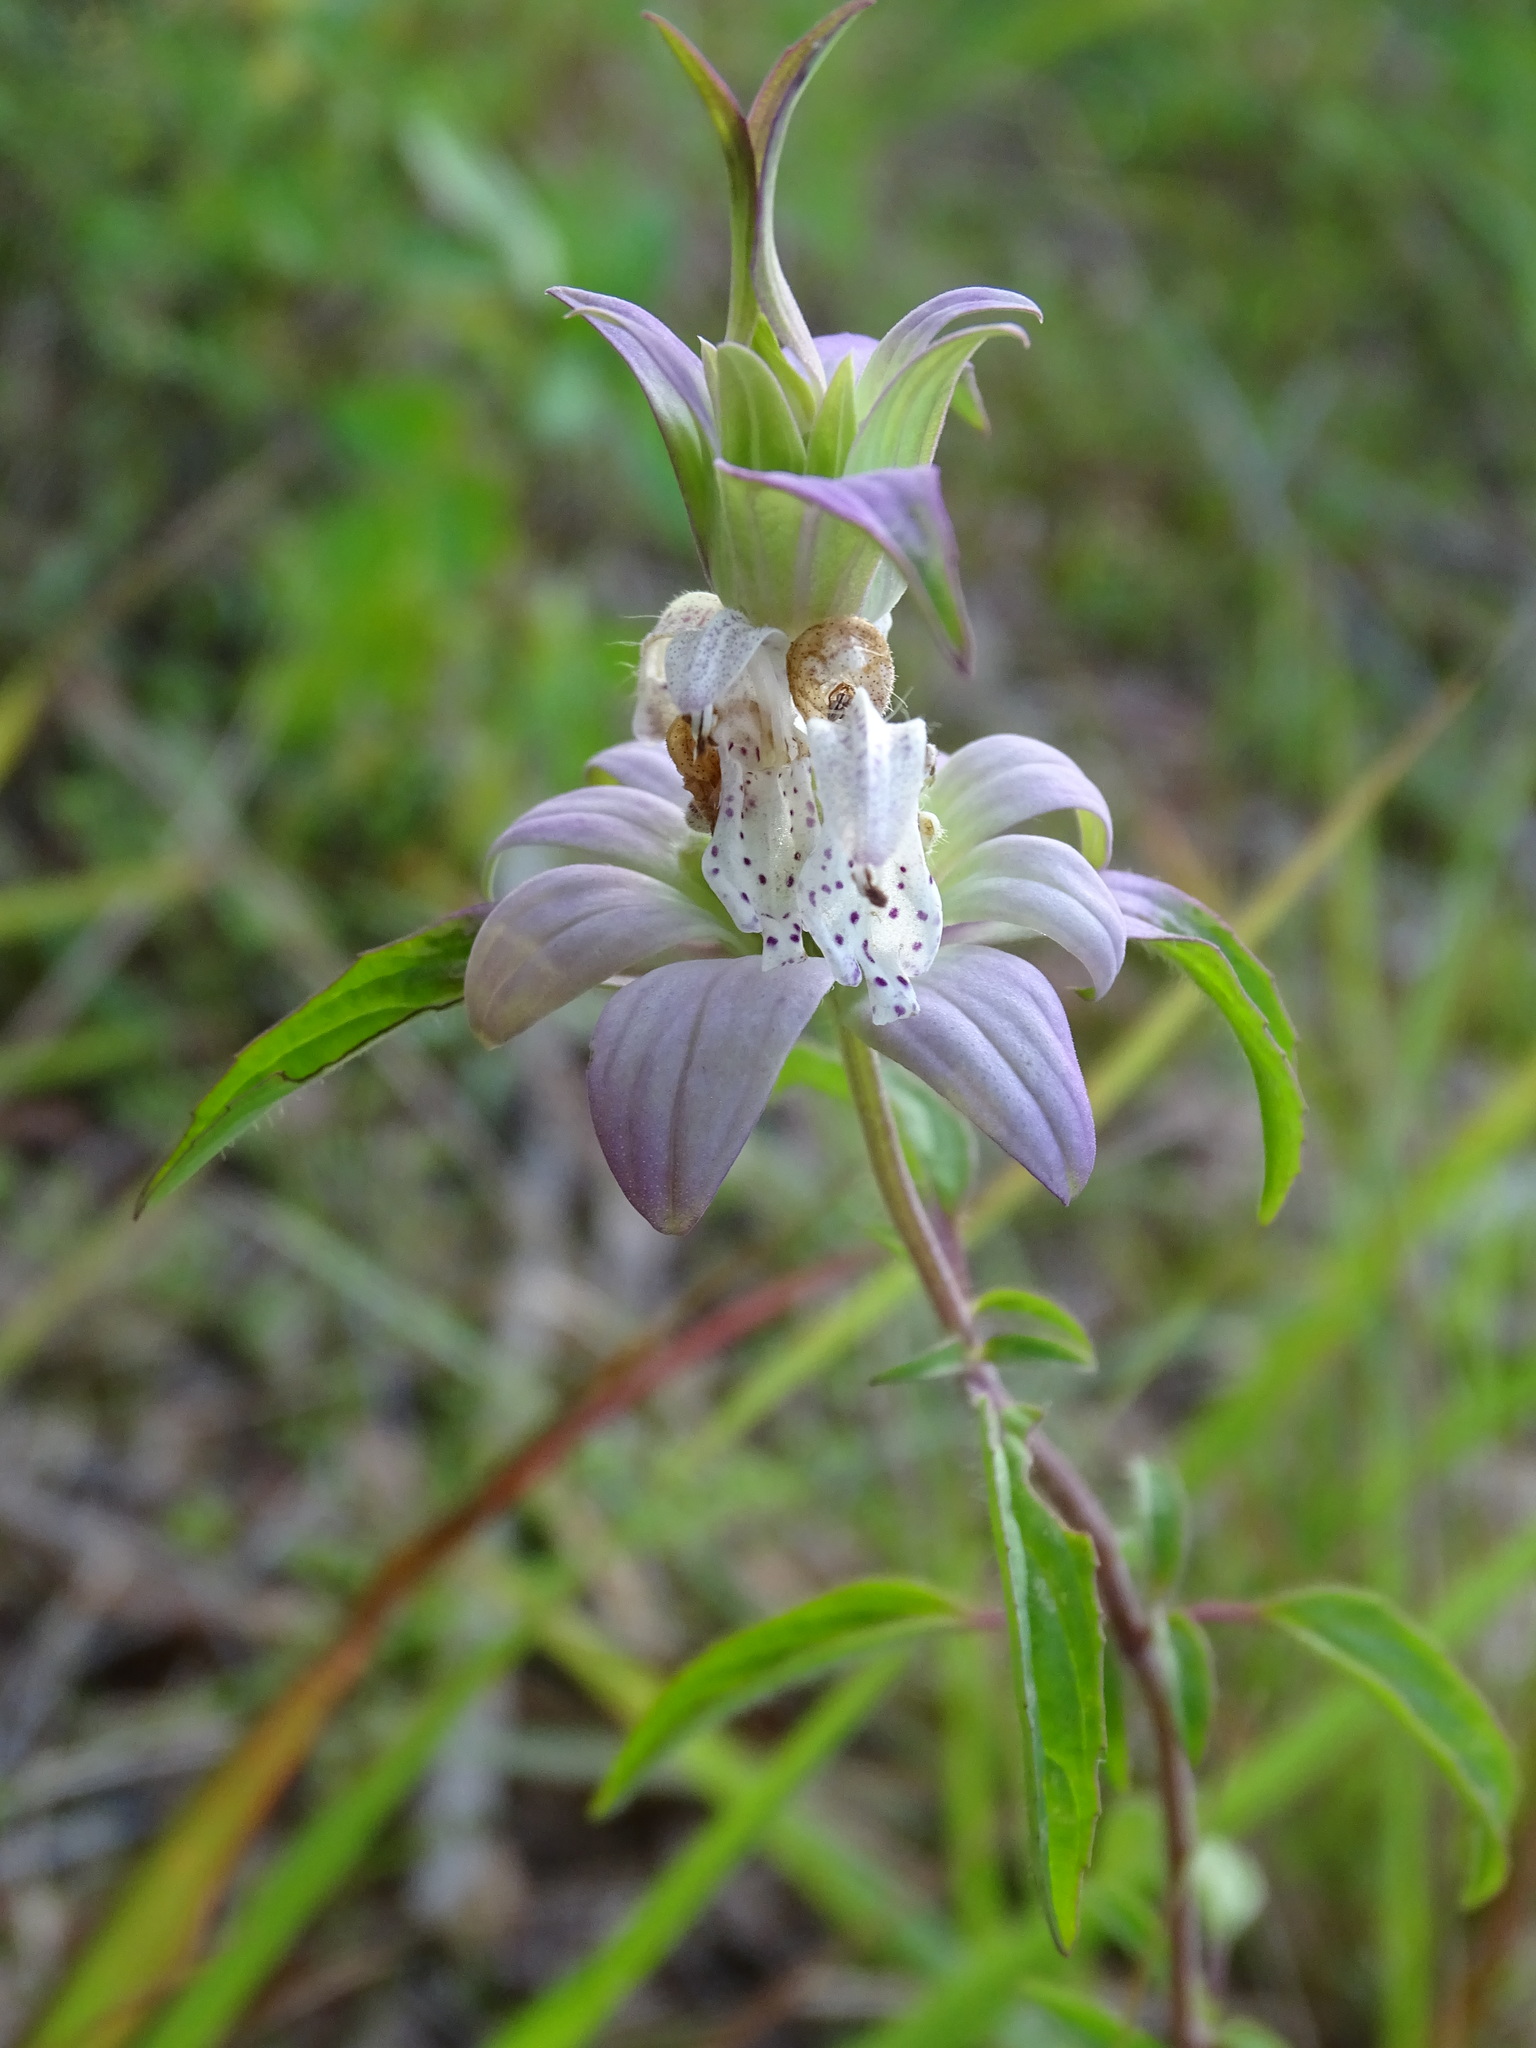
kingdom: Plantae
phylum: Tracheophyta
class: Magnoliopsida
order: Lamiales
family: Lamiaceae
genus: Monarda
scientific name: Monarda punctata
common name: Dotted monarda
